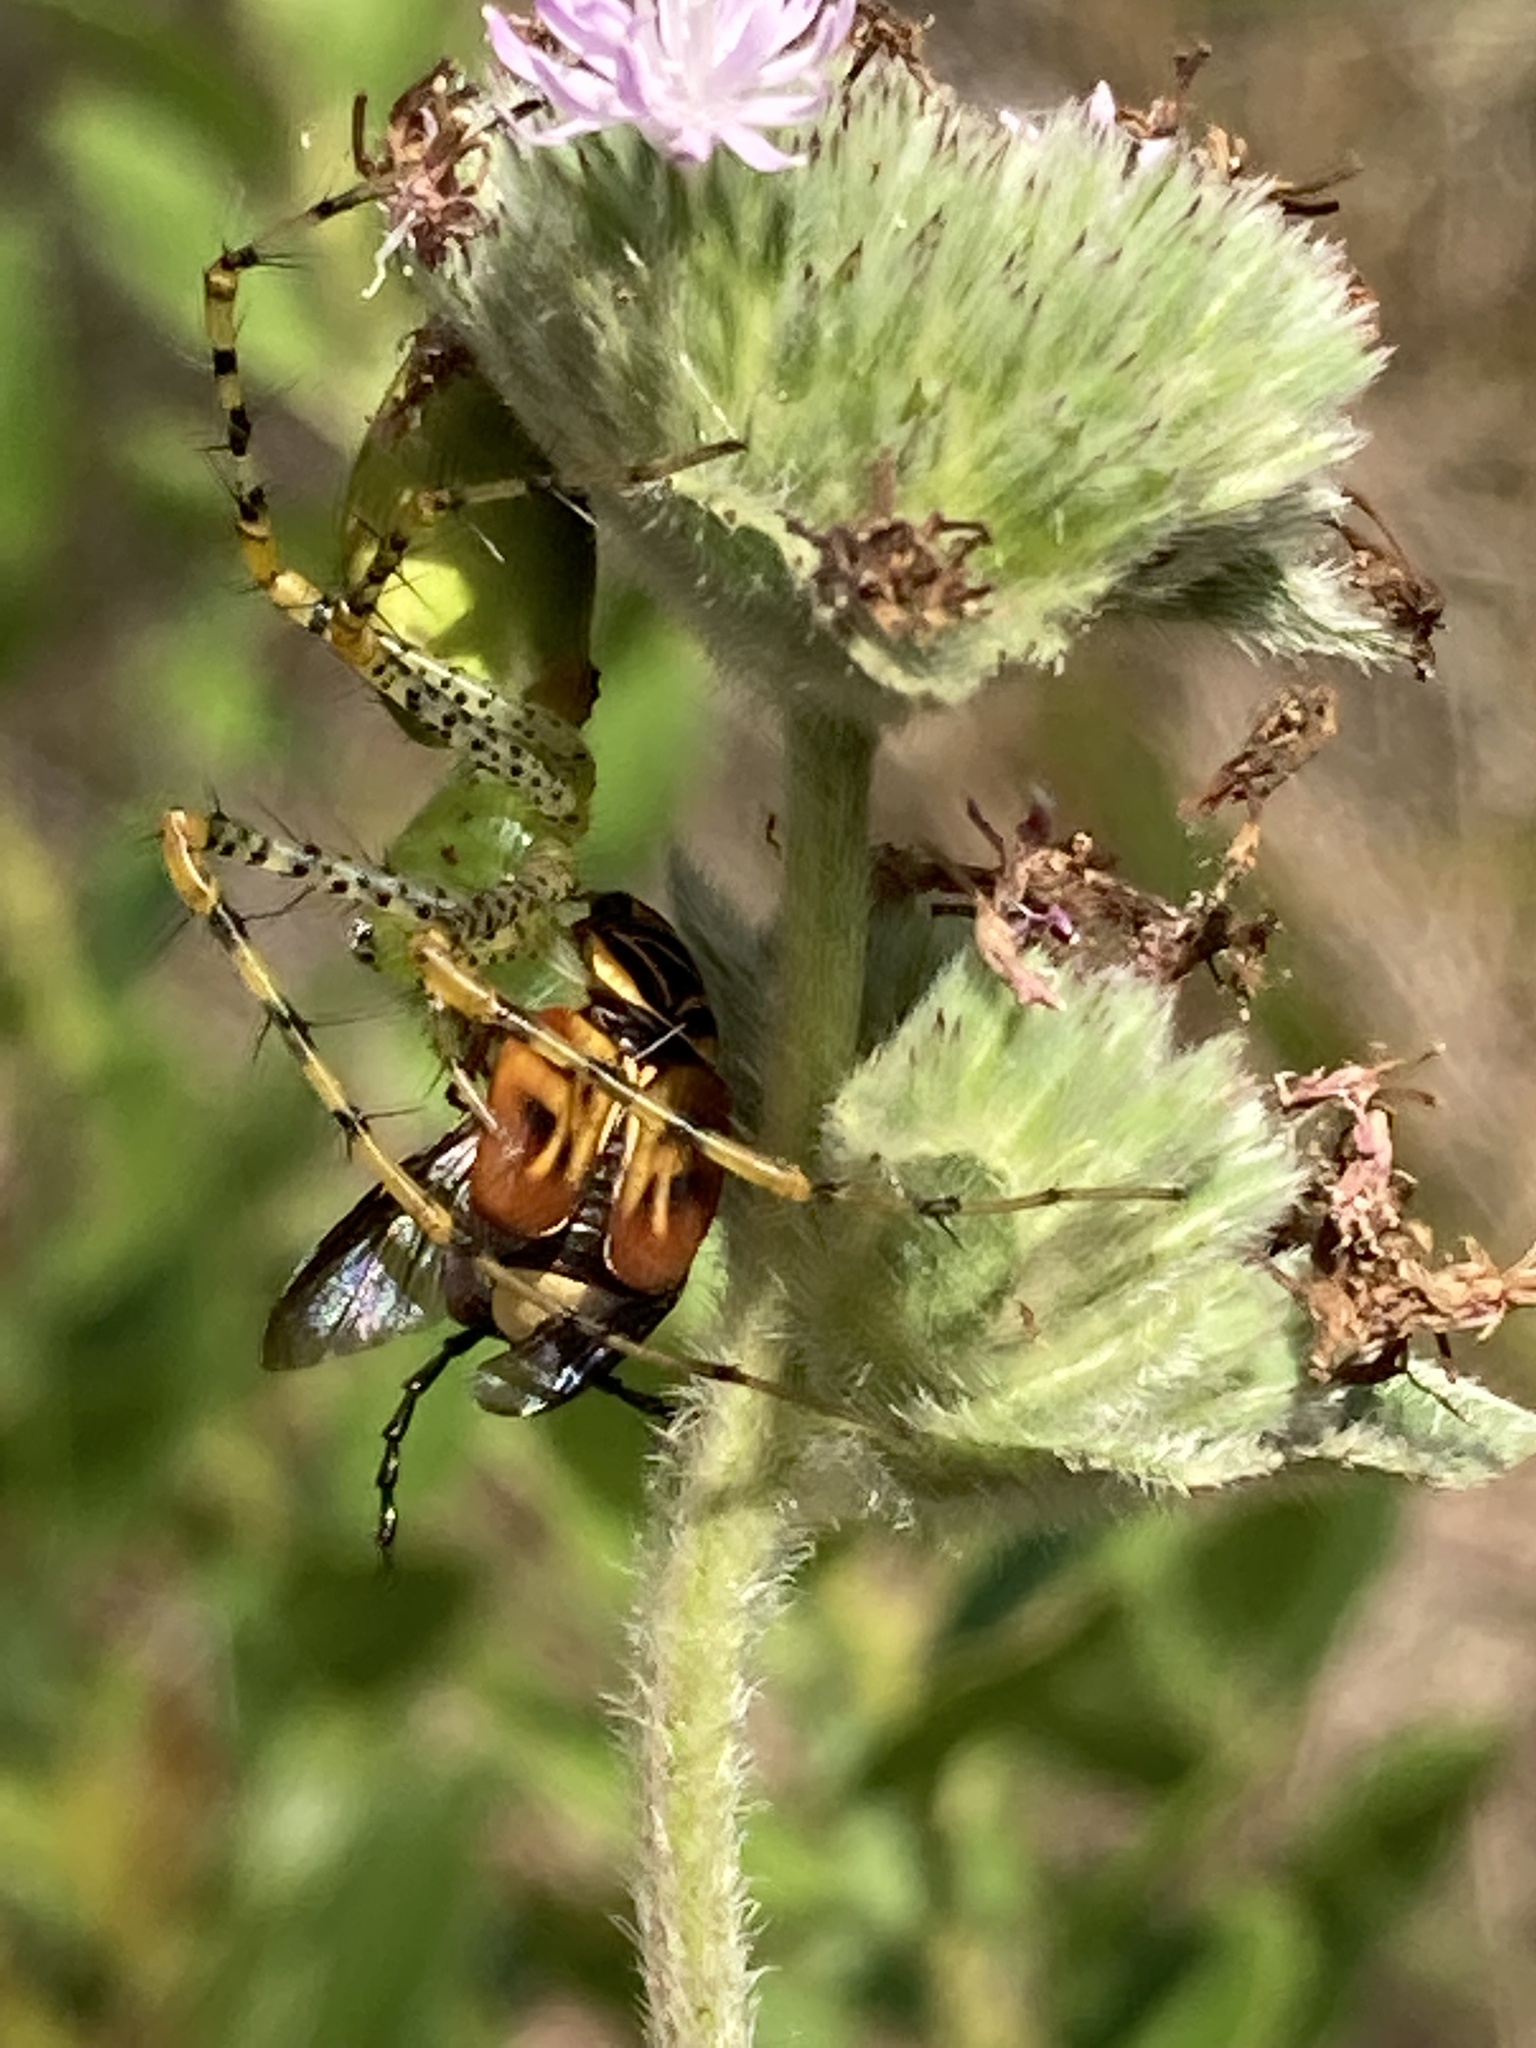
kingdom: Animalia
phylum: Arthropoda
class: Insecta
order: Coleoptera
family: Scarabaeidae
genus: Trigonopeltastes
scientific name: Trigonopeltastes delta
